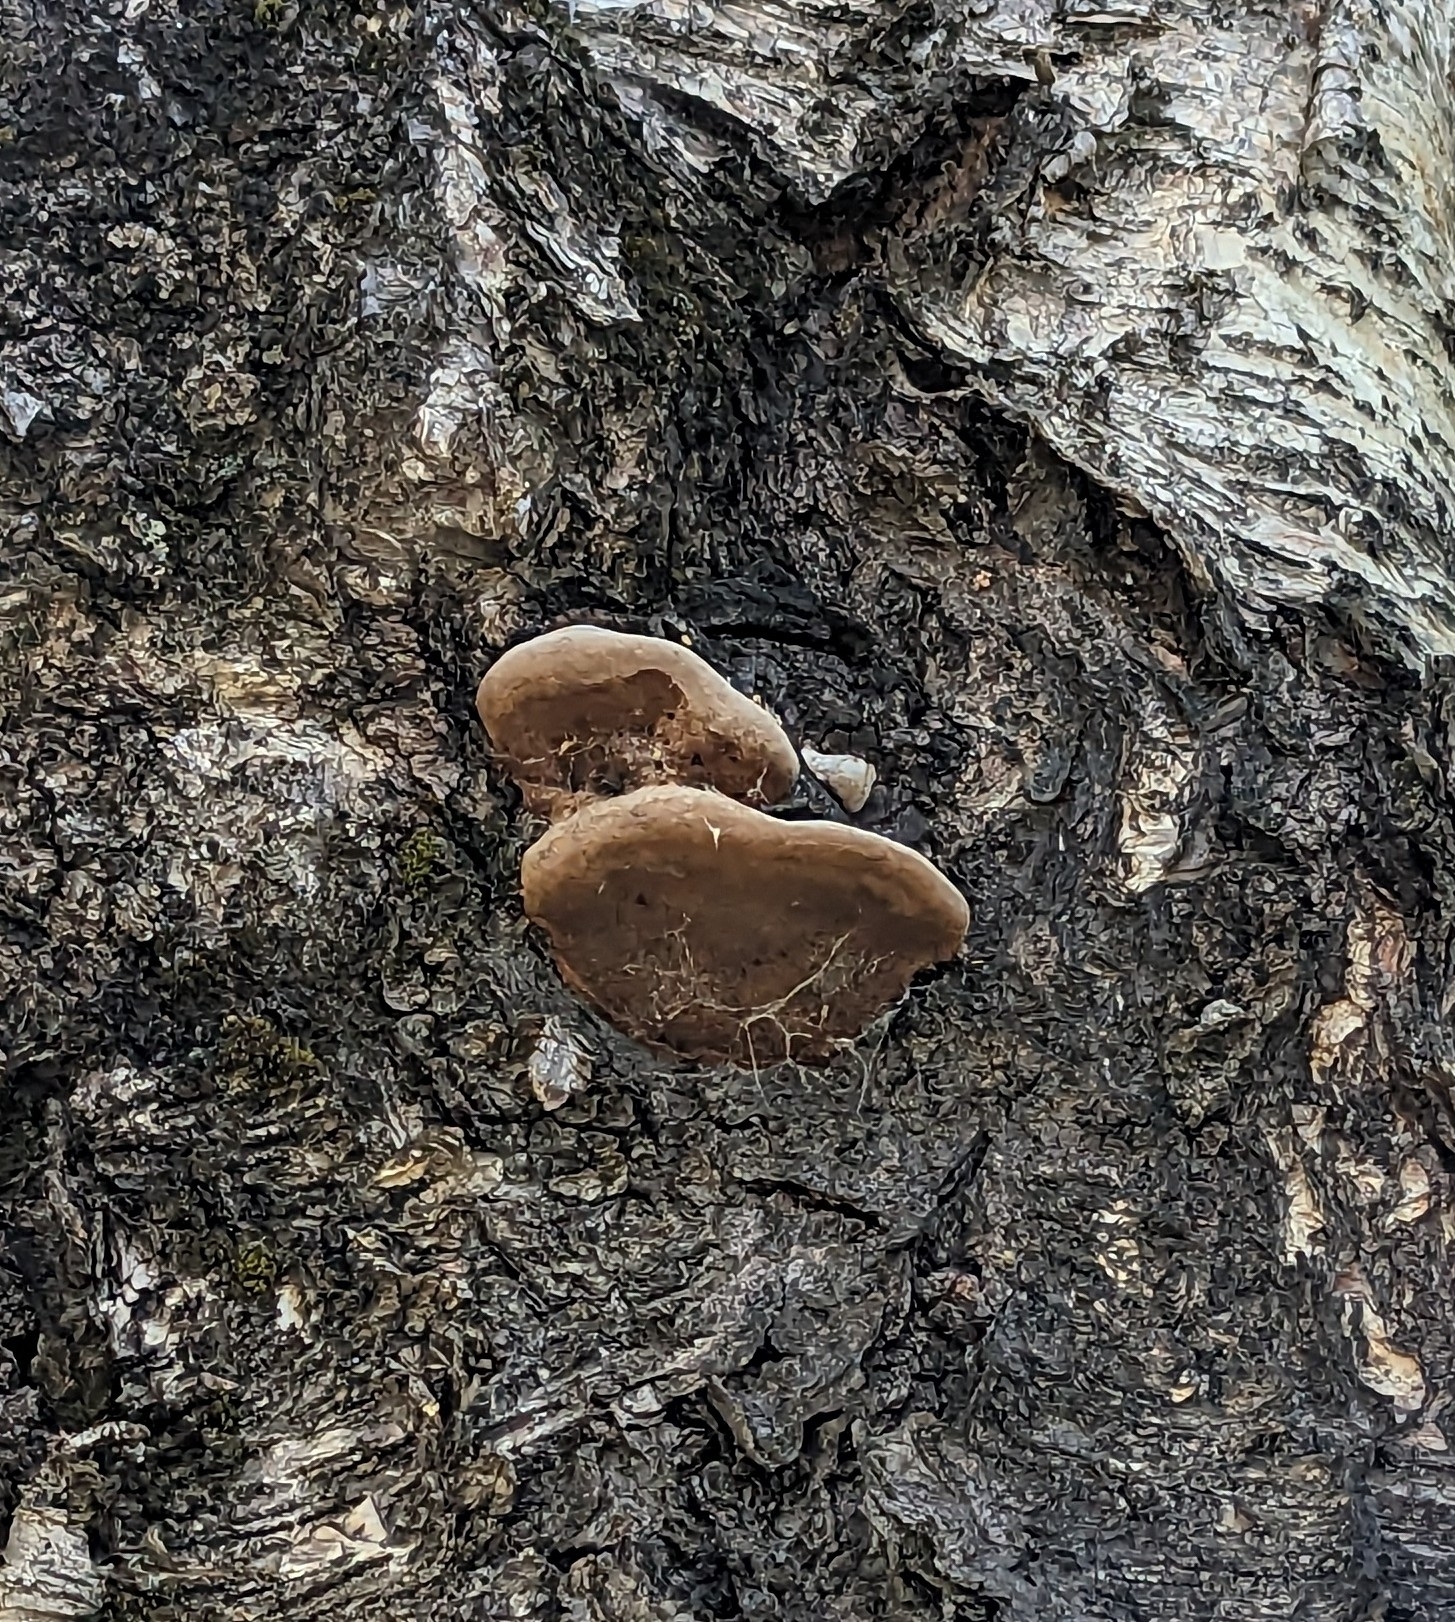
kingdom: Fungi
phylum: Basidiomycota
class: Agaricomycetes
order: Hymenochaetales
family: Hymenochaetaceae
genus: Phellinus
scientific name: Phellinus igniarius
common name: Willow bracket
